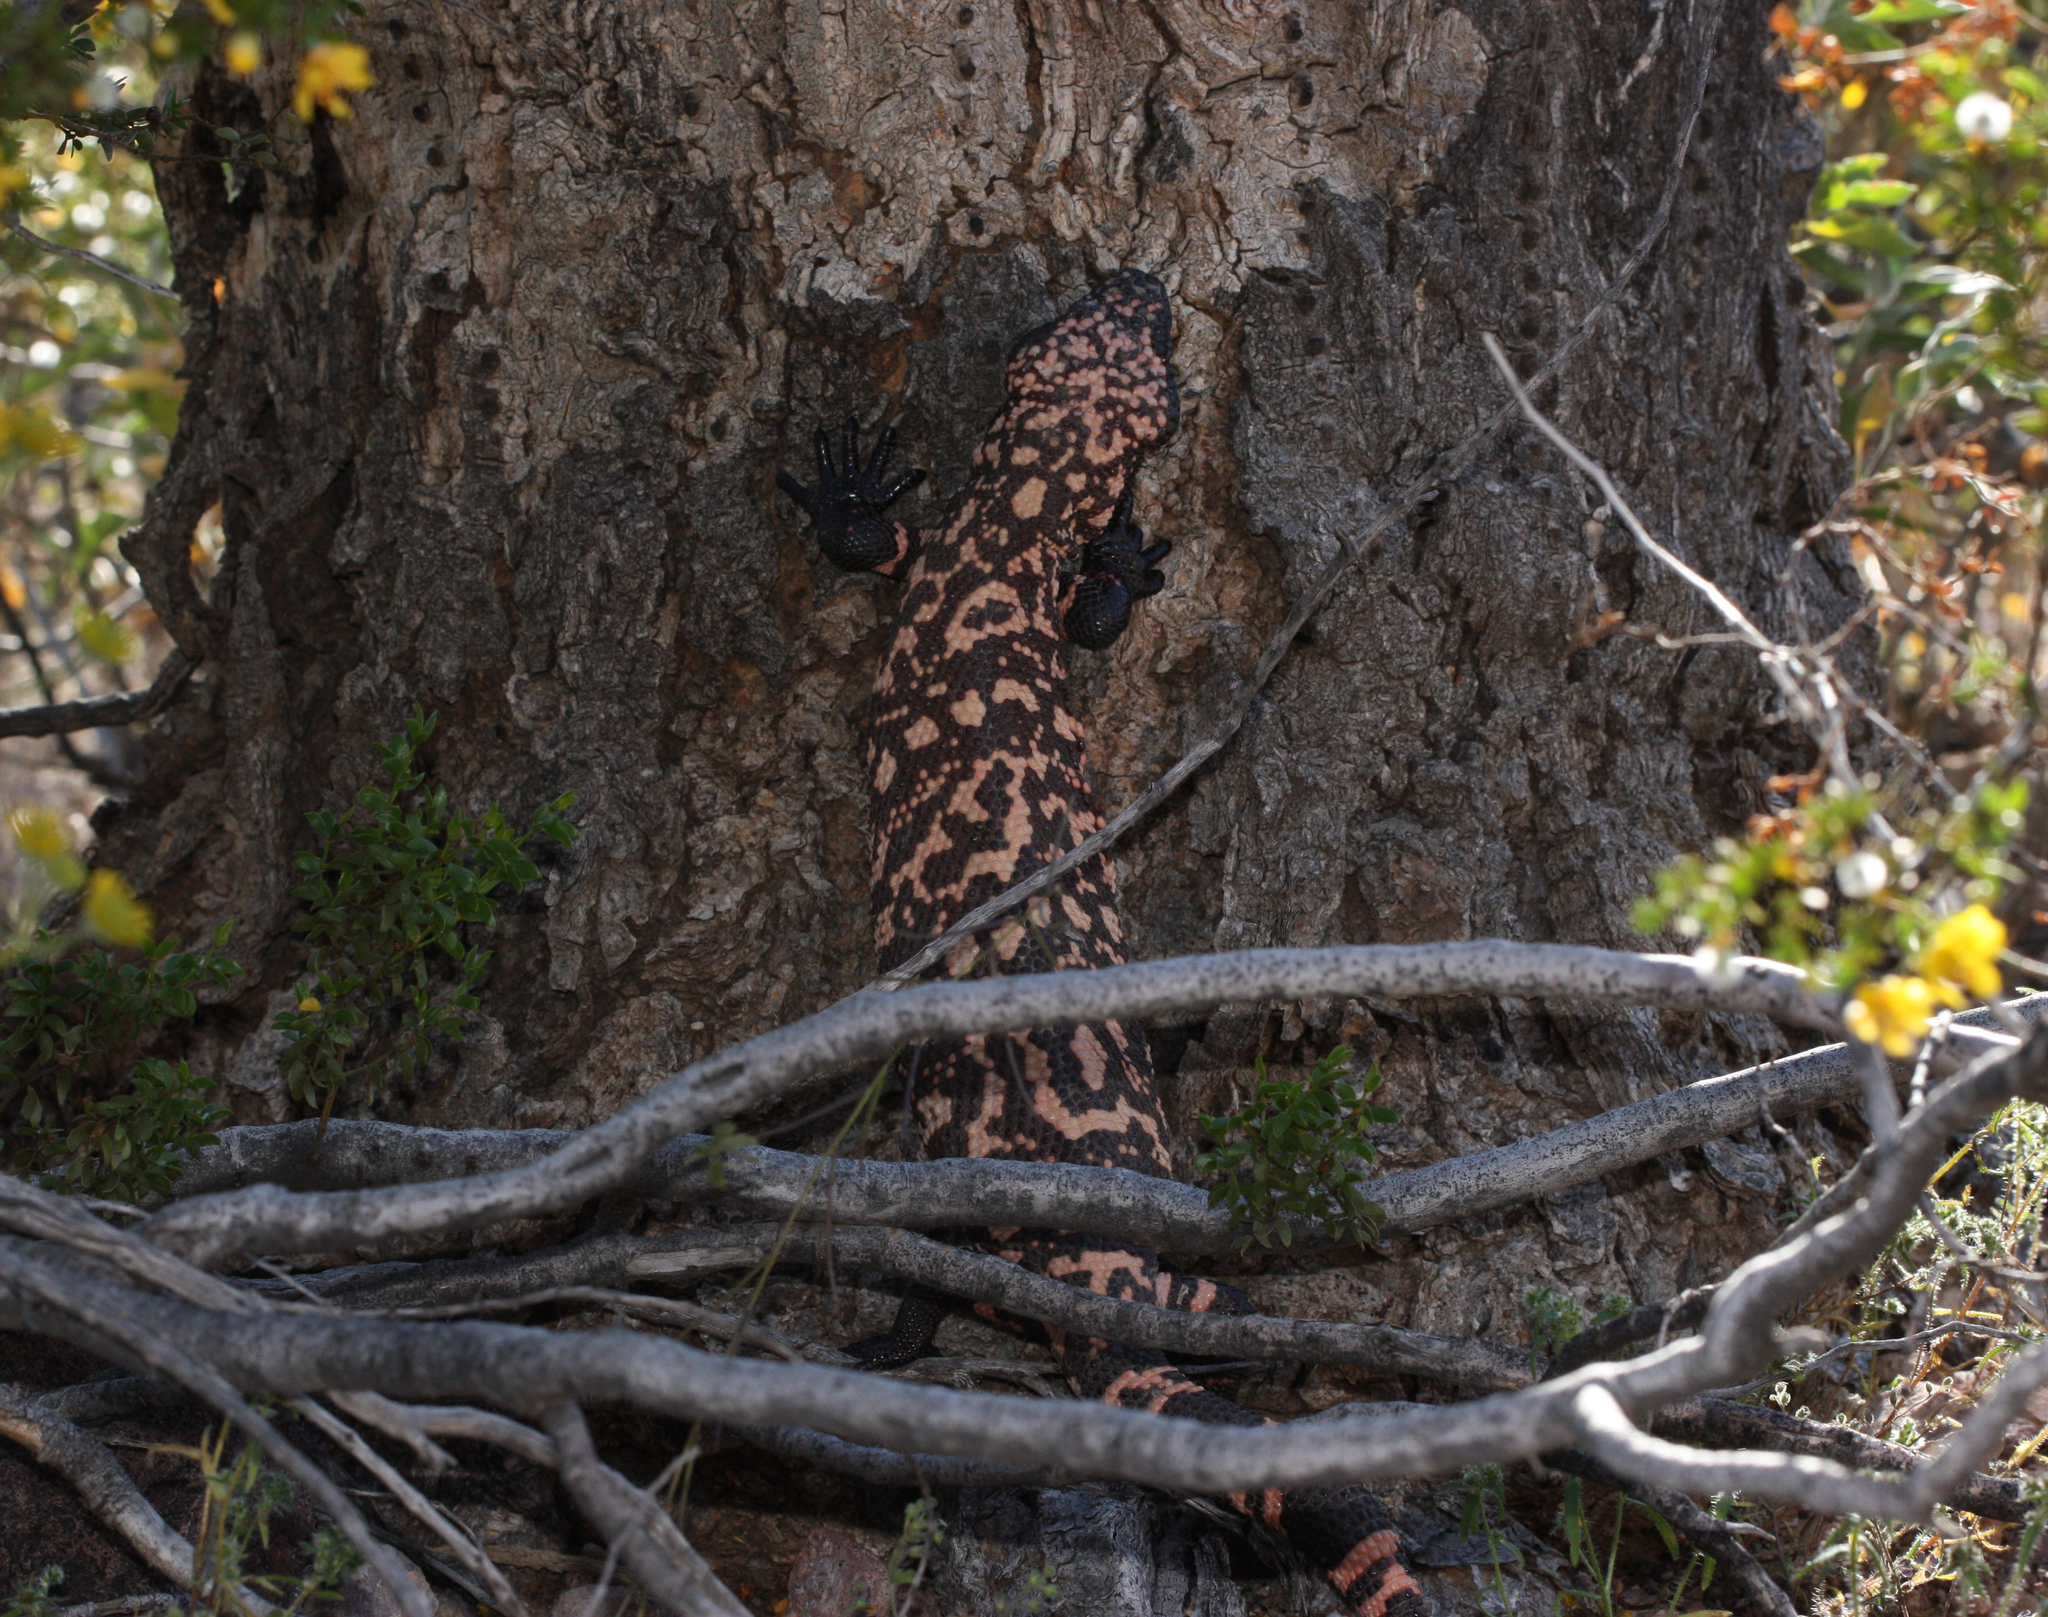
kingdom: Animalia
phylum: Chordata
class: Squamata
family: Helodermatidae
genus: Heloderma
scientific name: Heloderma suspectum
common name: Gila monster
